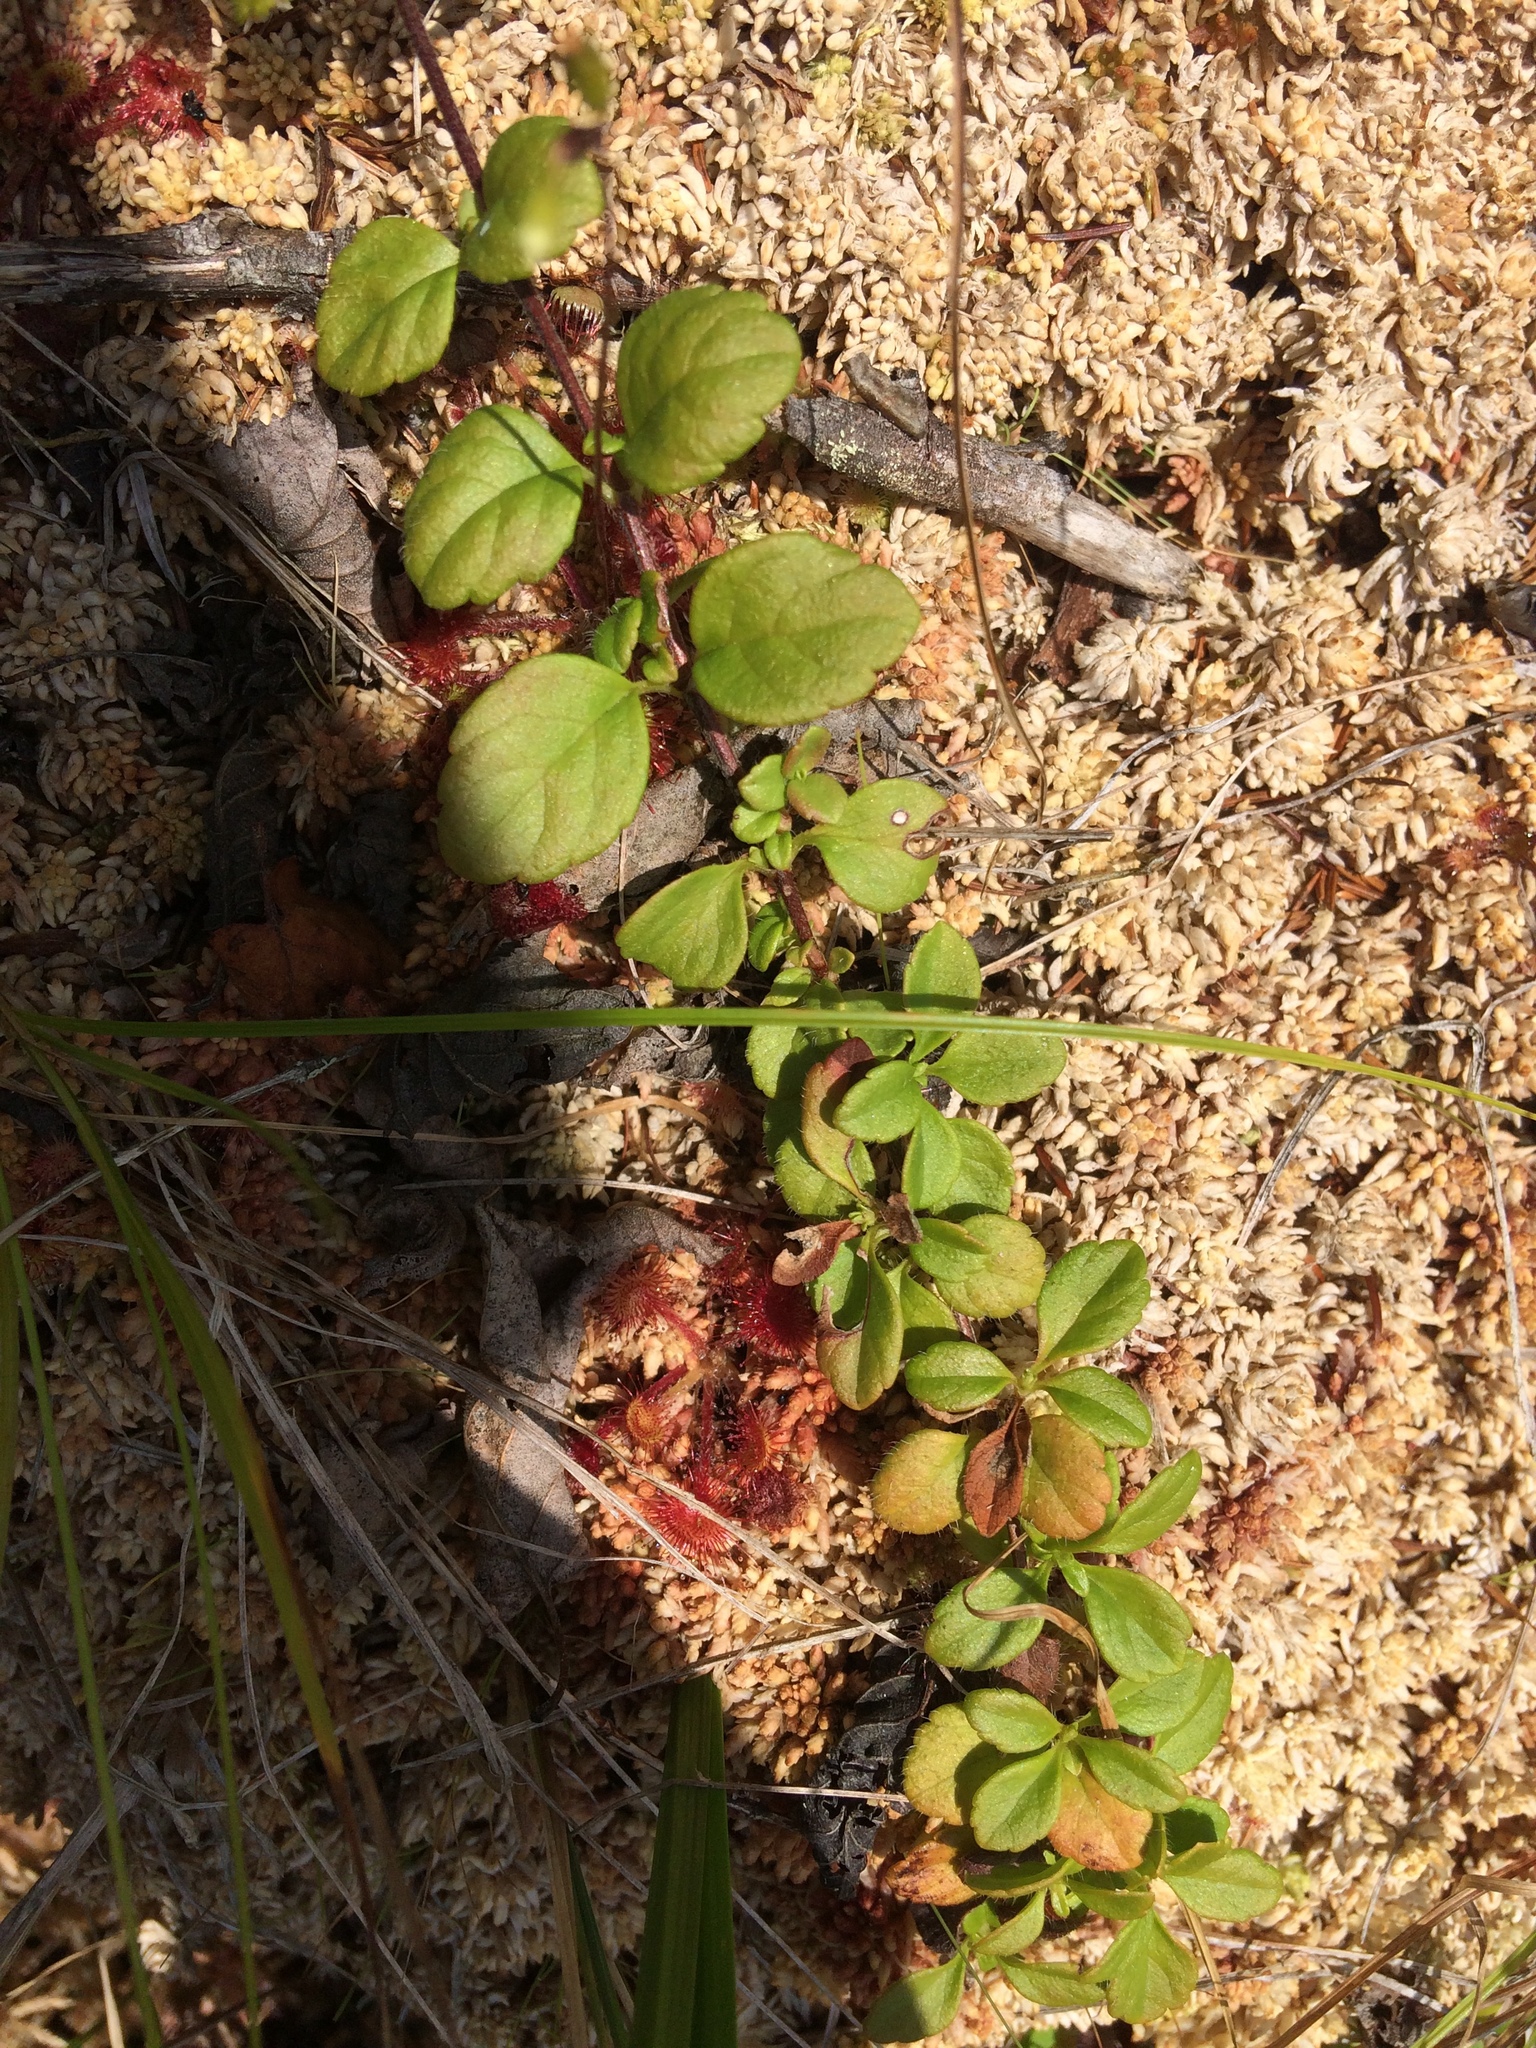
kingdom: Plantae
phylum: Tracheophyta
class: Magnoliopsida
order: Dipsacales
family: Caprifoliaceae
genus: Linnaea
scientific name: Linnaea borealis
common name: Twinflower
